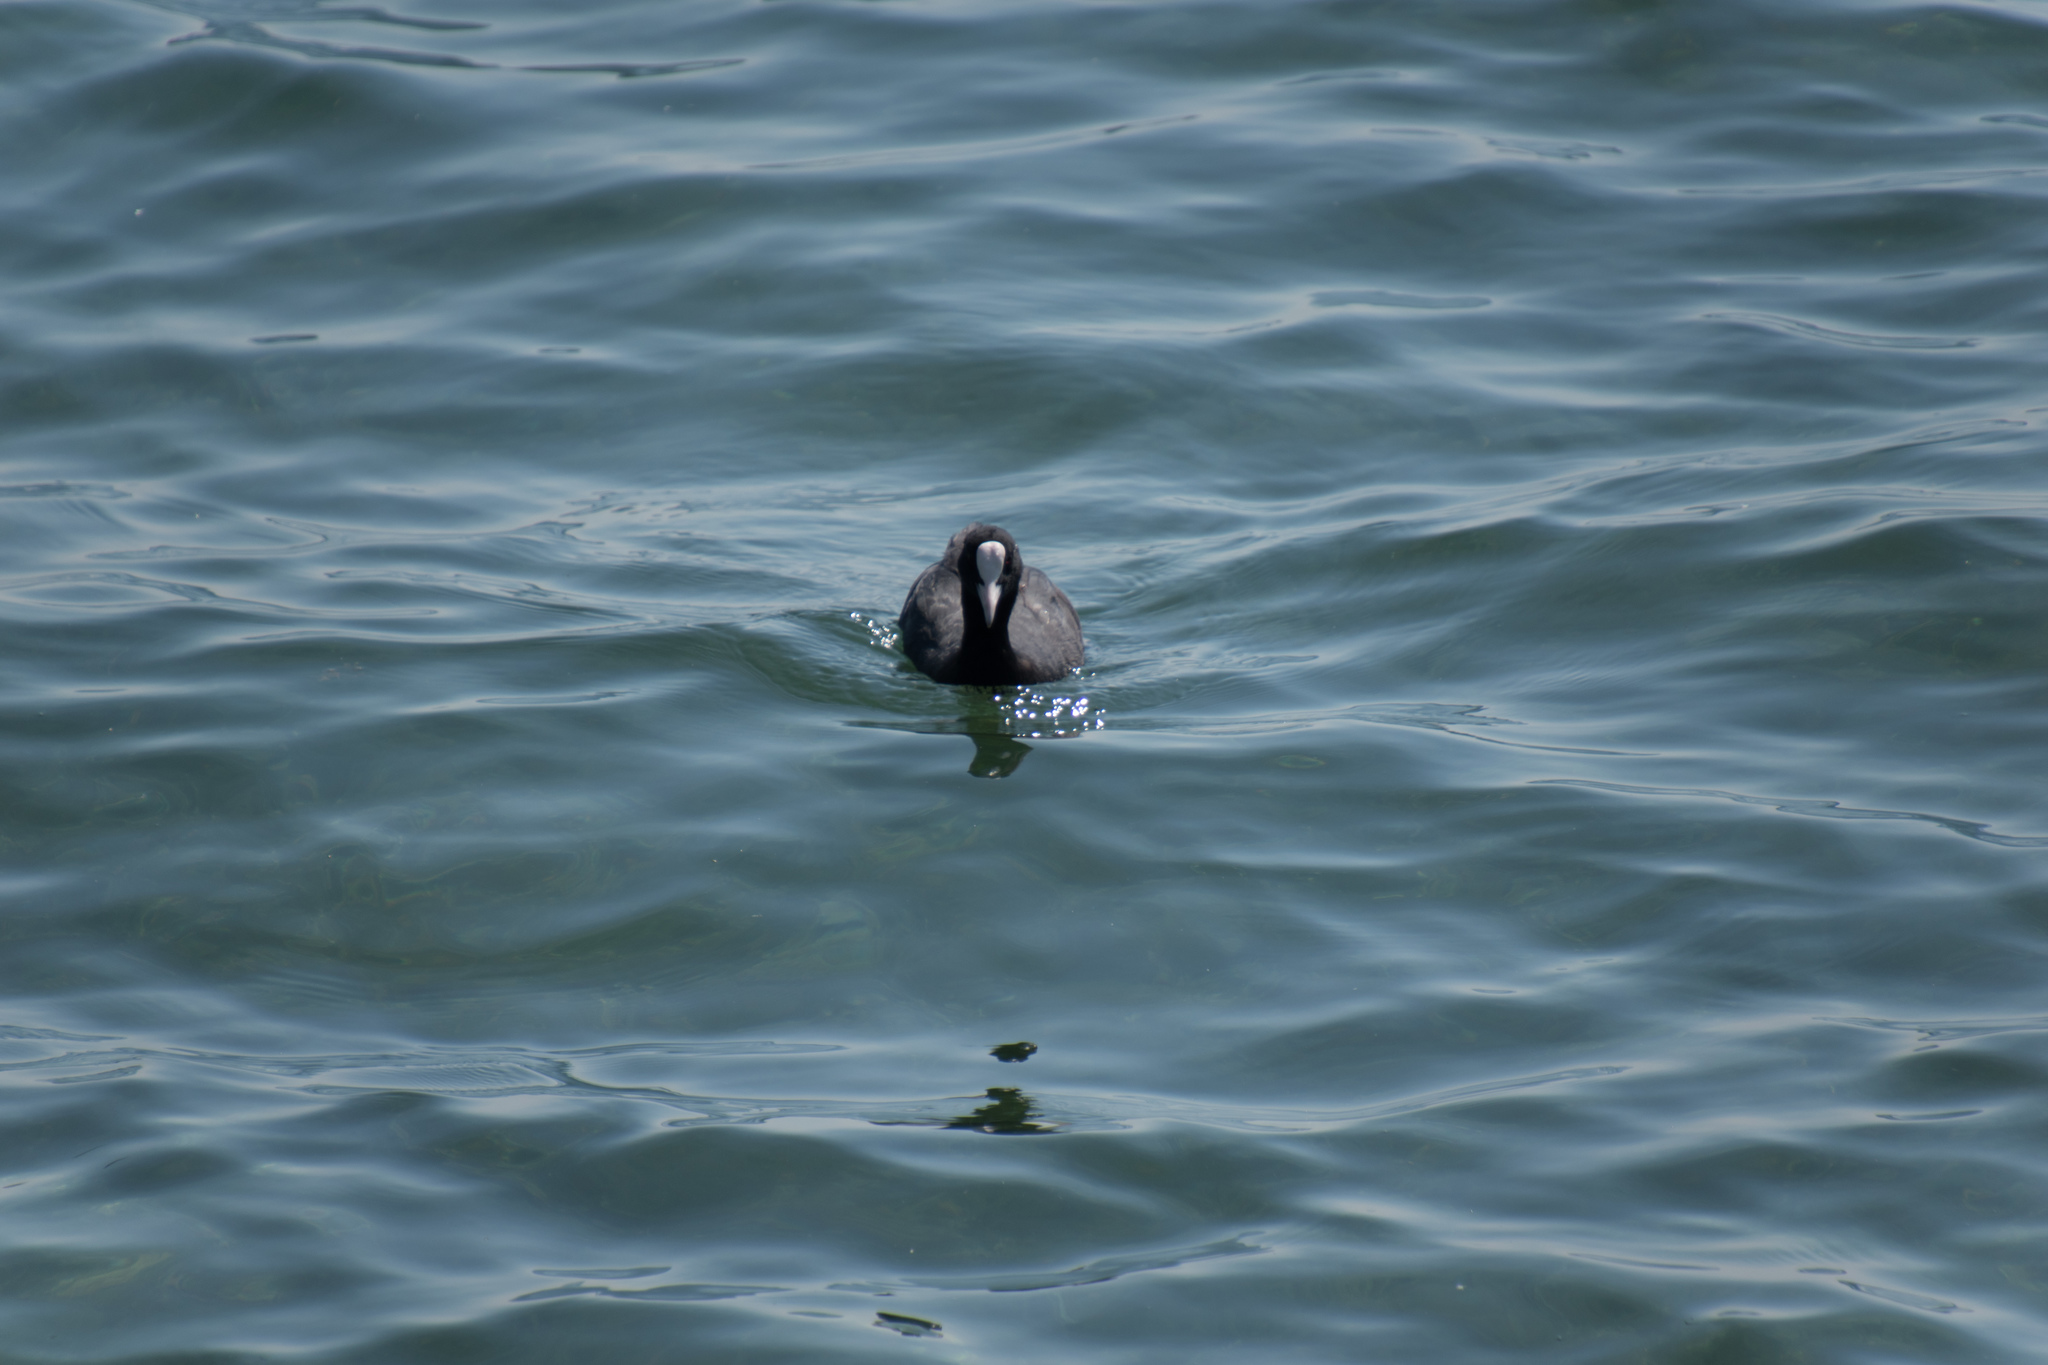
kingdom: Animalia
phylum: Chordata
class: Aves
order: Gruiformes
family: Rallidae
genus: Fulica
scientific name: Fulica atra
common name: Eurasian coot
